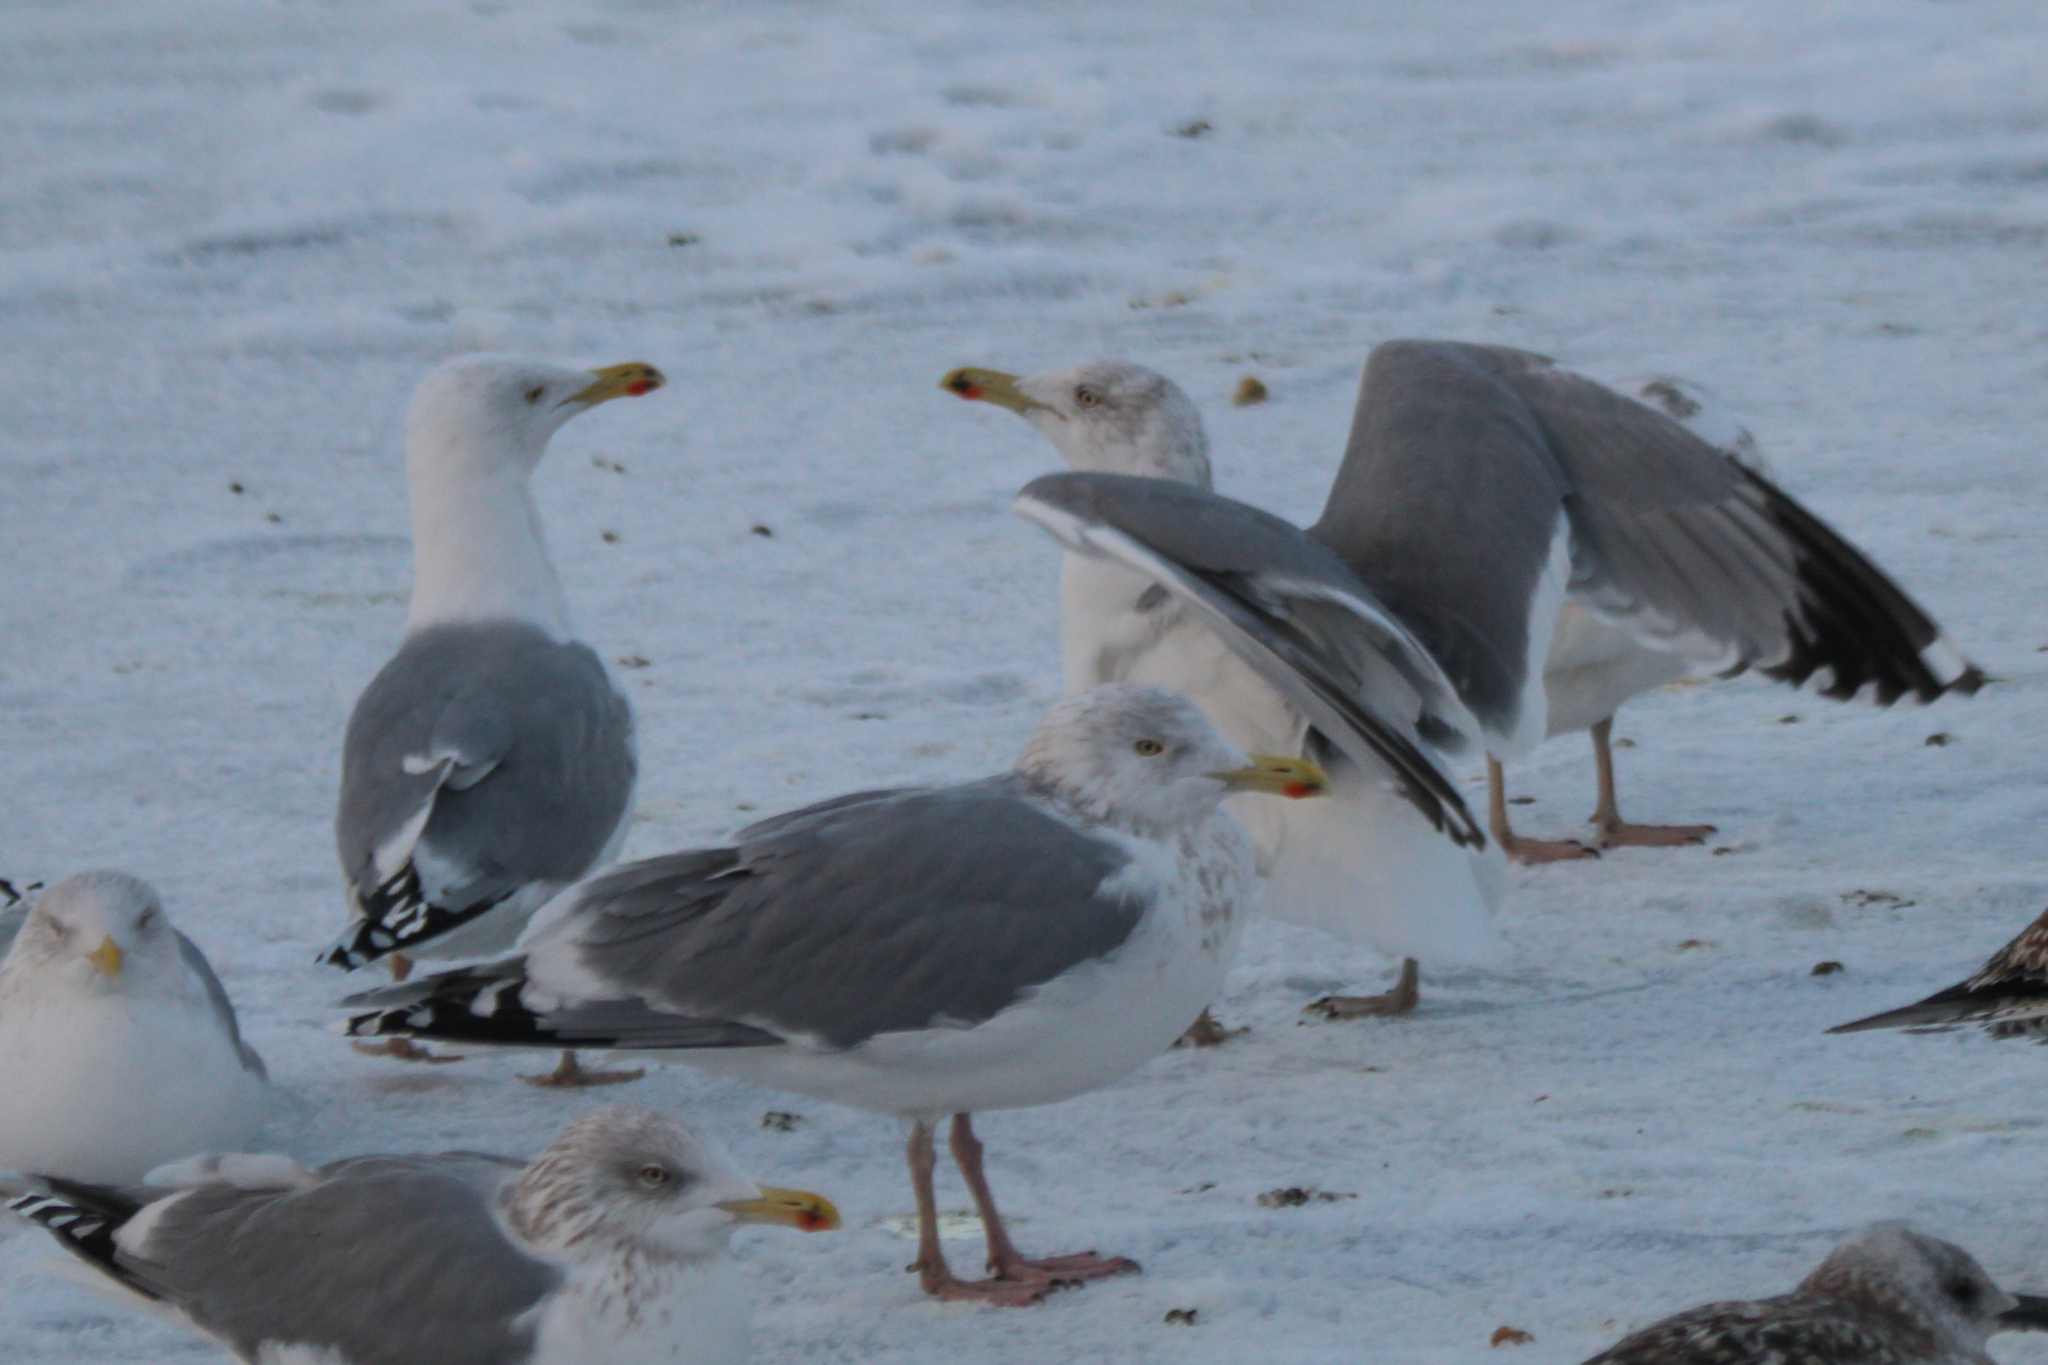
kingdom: Animalia
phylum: Chordata
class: Aves
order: Charadriiformes
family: Laridae
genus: Larus
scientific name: Larus argentatus
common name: Herring gull
